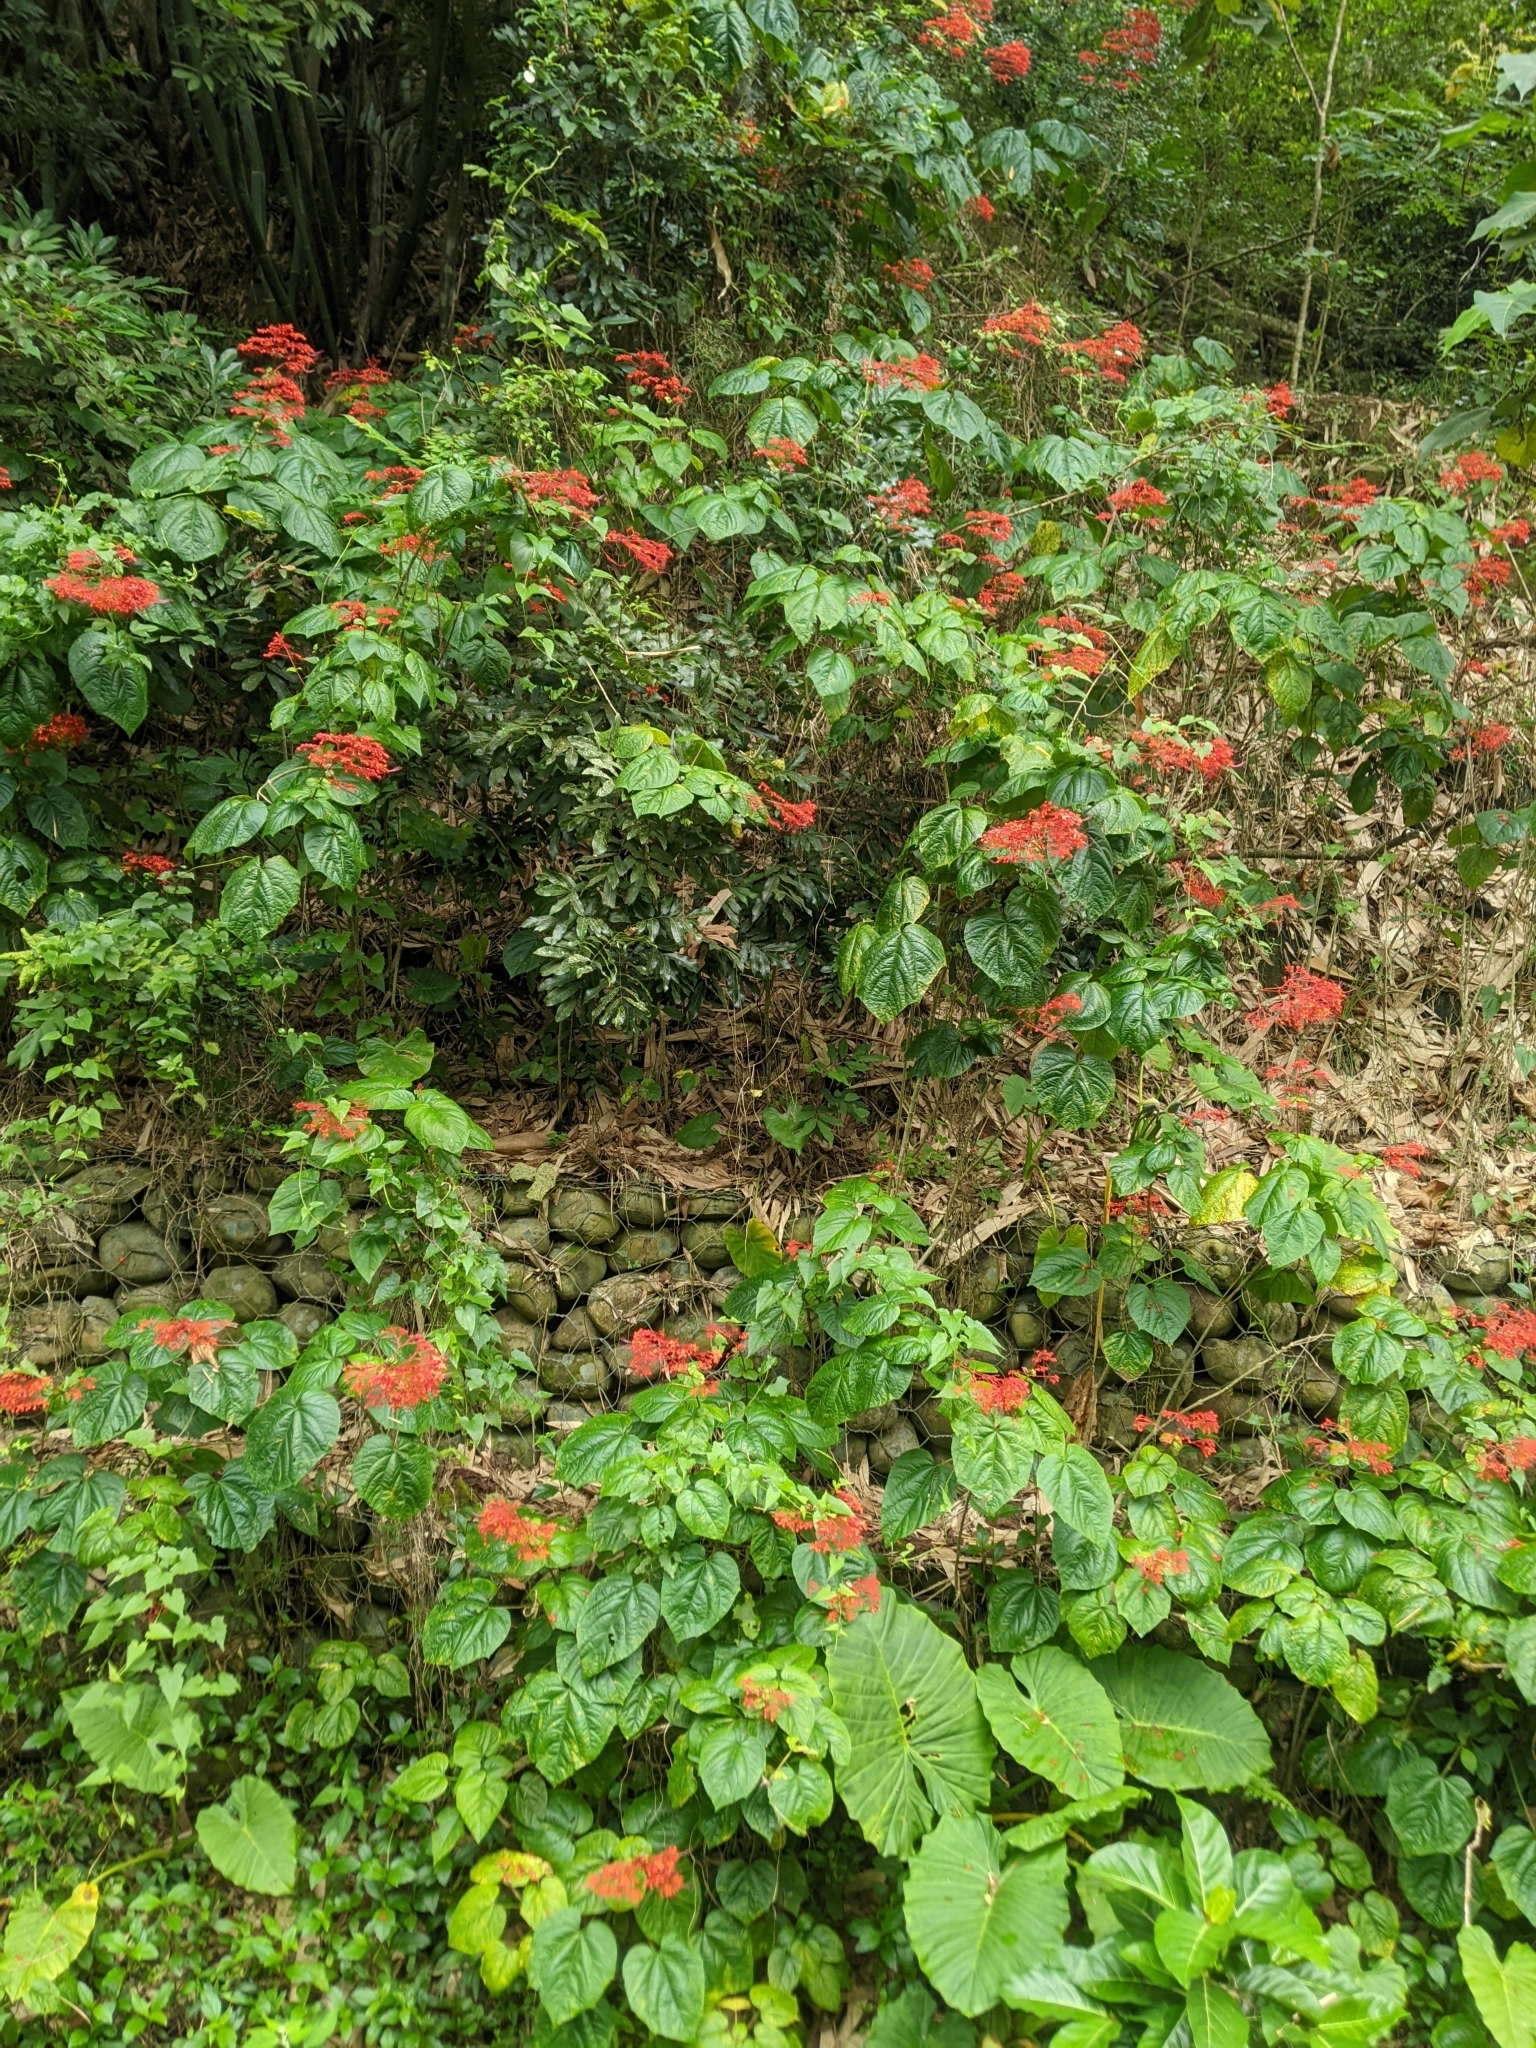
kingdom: Plantae
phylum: Tracheophyta
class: Magnoliopsida
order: Lamiales
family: Lamiaceae
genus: Clerodendrum
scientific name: Clerodendrum japonicum
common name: Japanese glorybower
